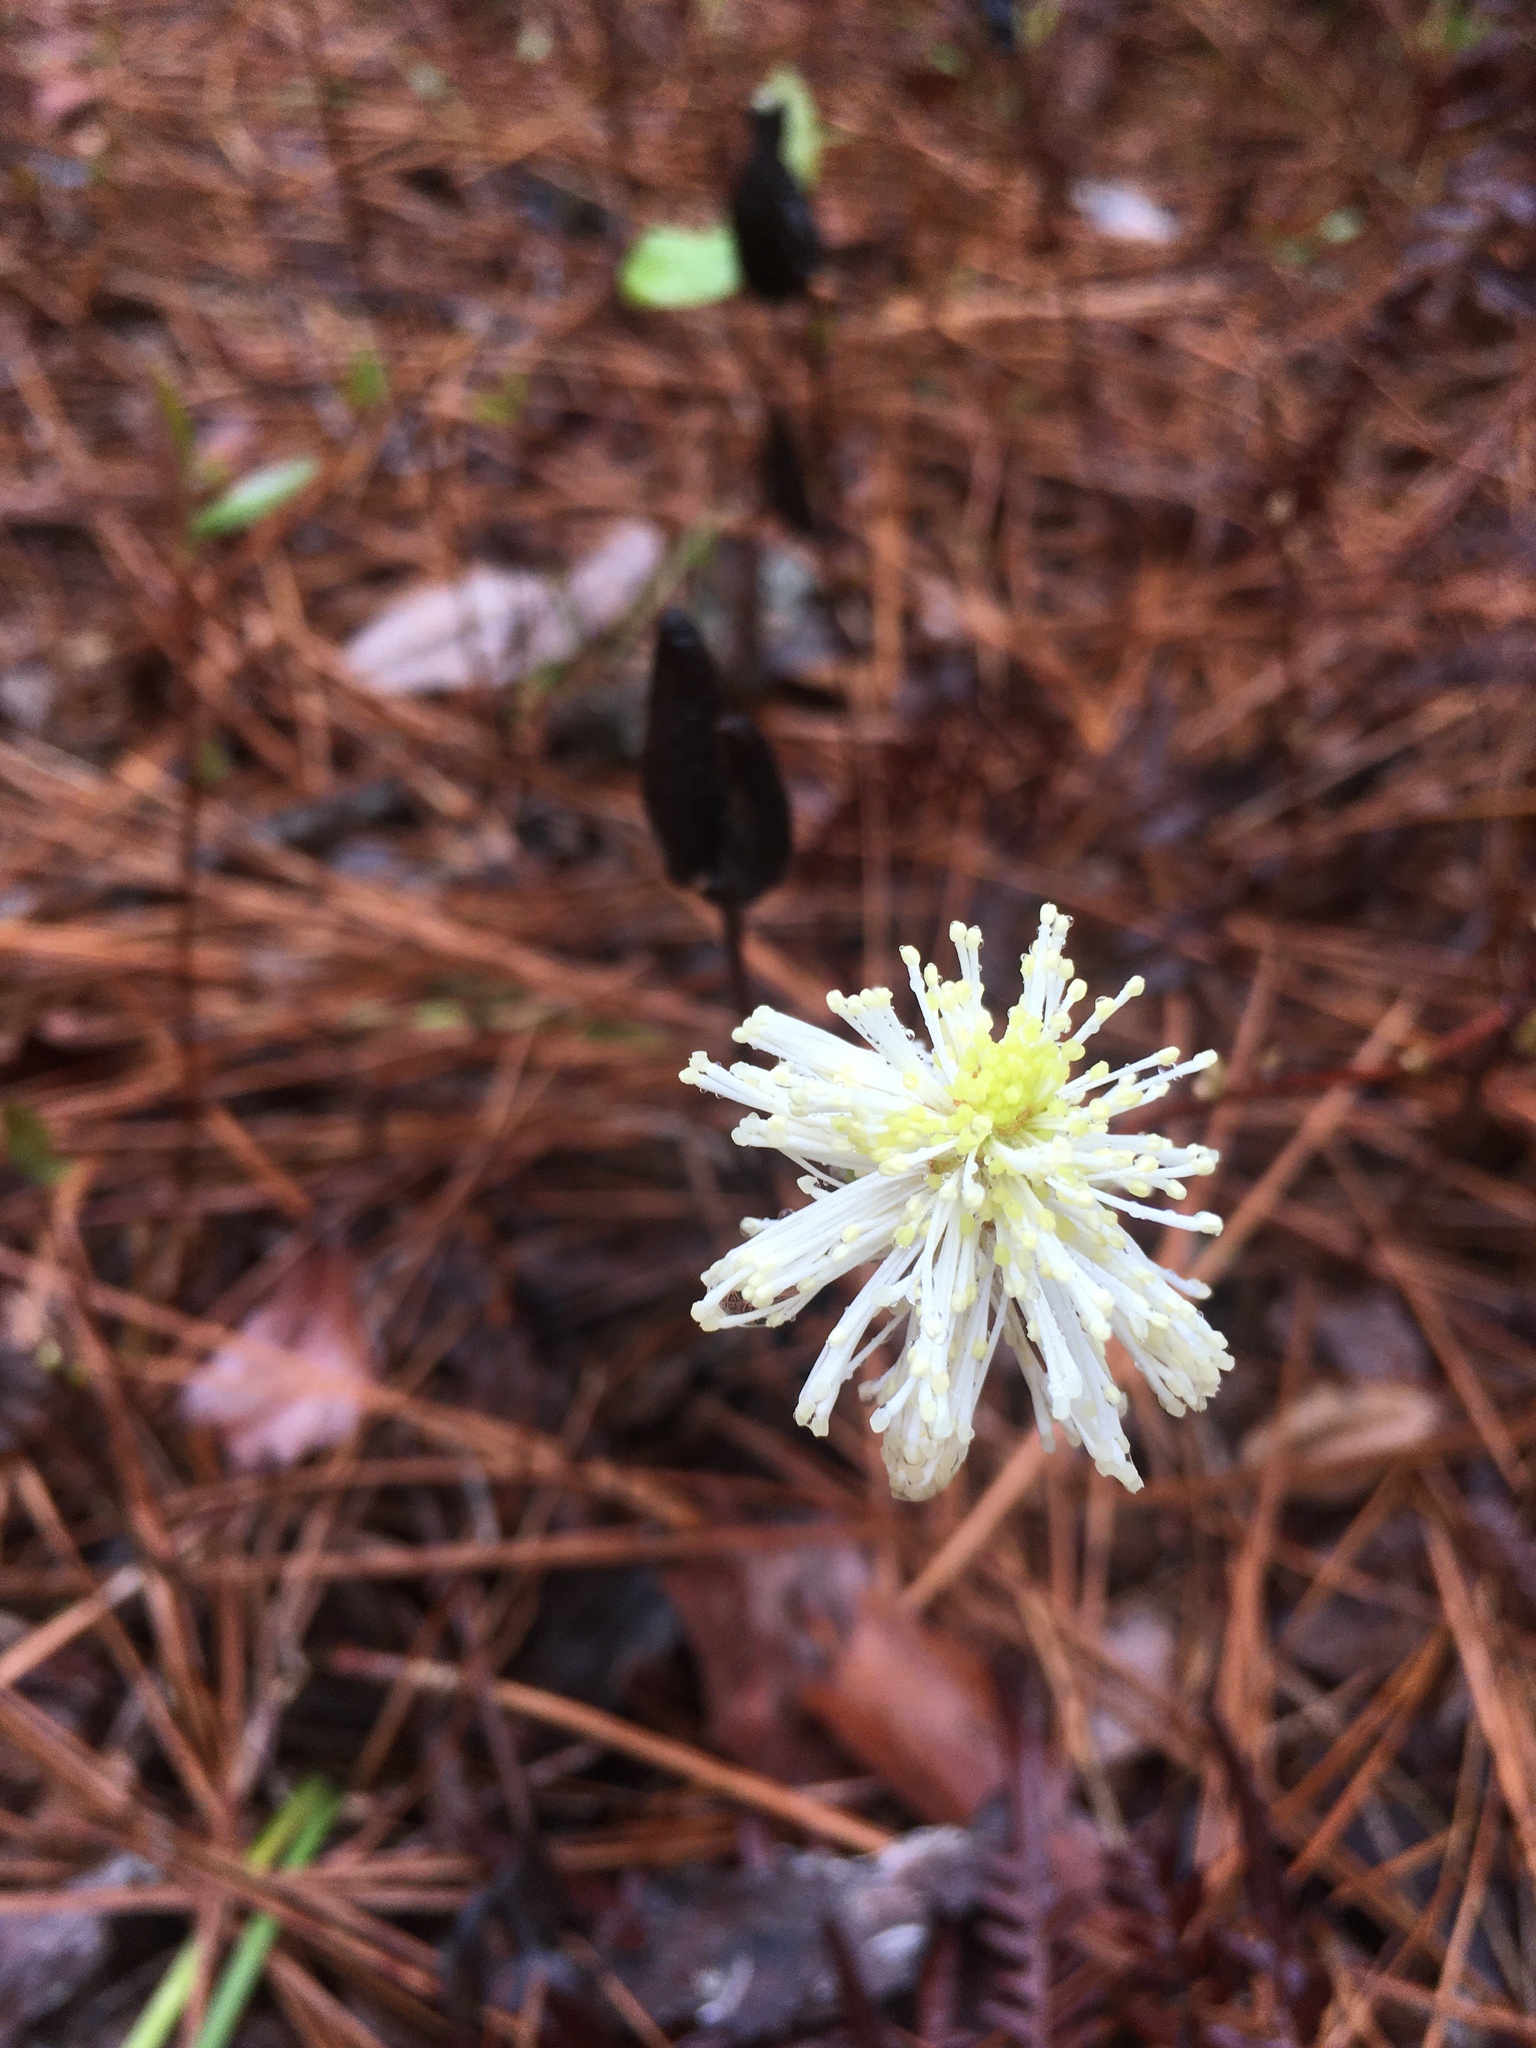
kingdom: Plantae
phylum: Tracheophyta
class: Magnoliopsida
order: Saxifragales
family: Hamamelidaceae
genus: Fothergilla
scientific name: Fothergilla gardenii
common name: Dwarf witch-alder
